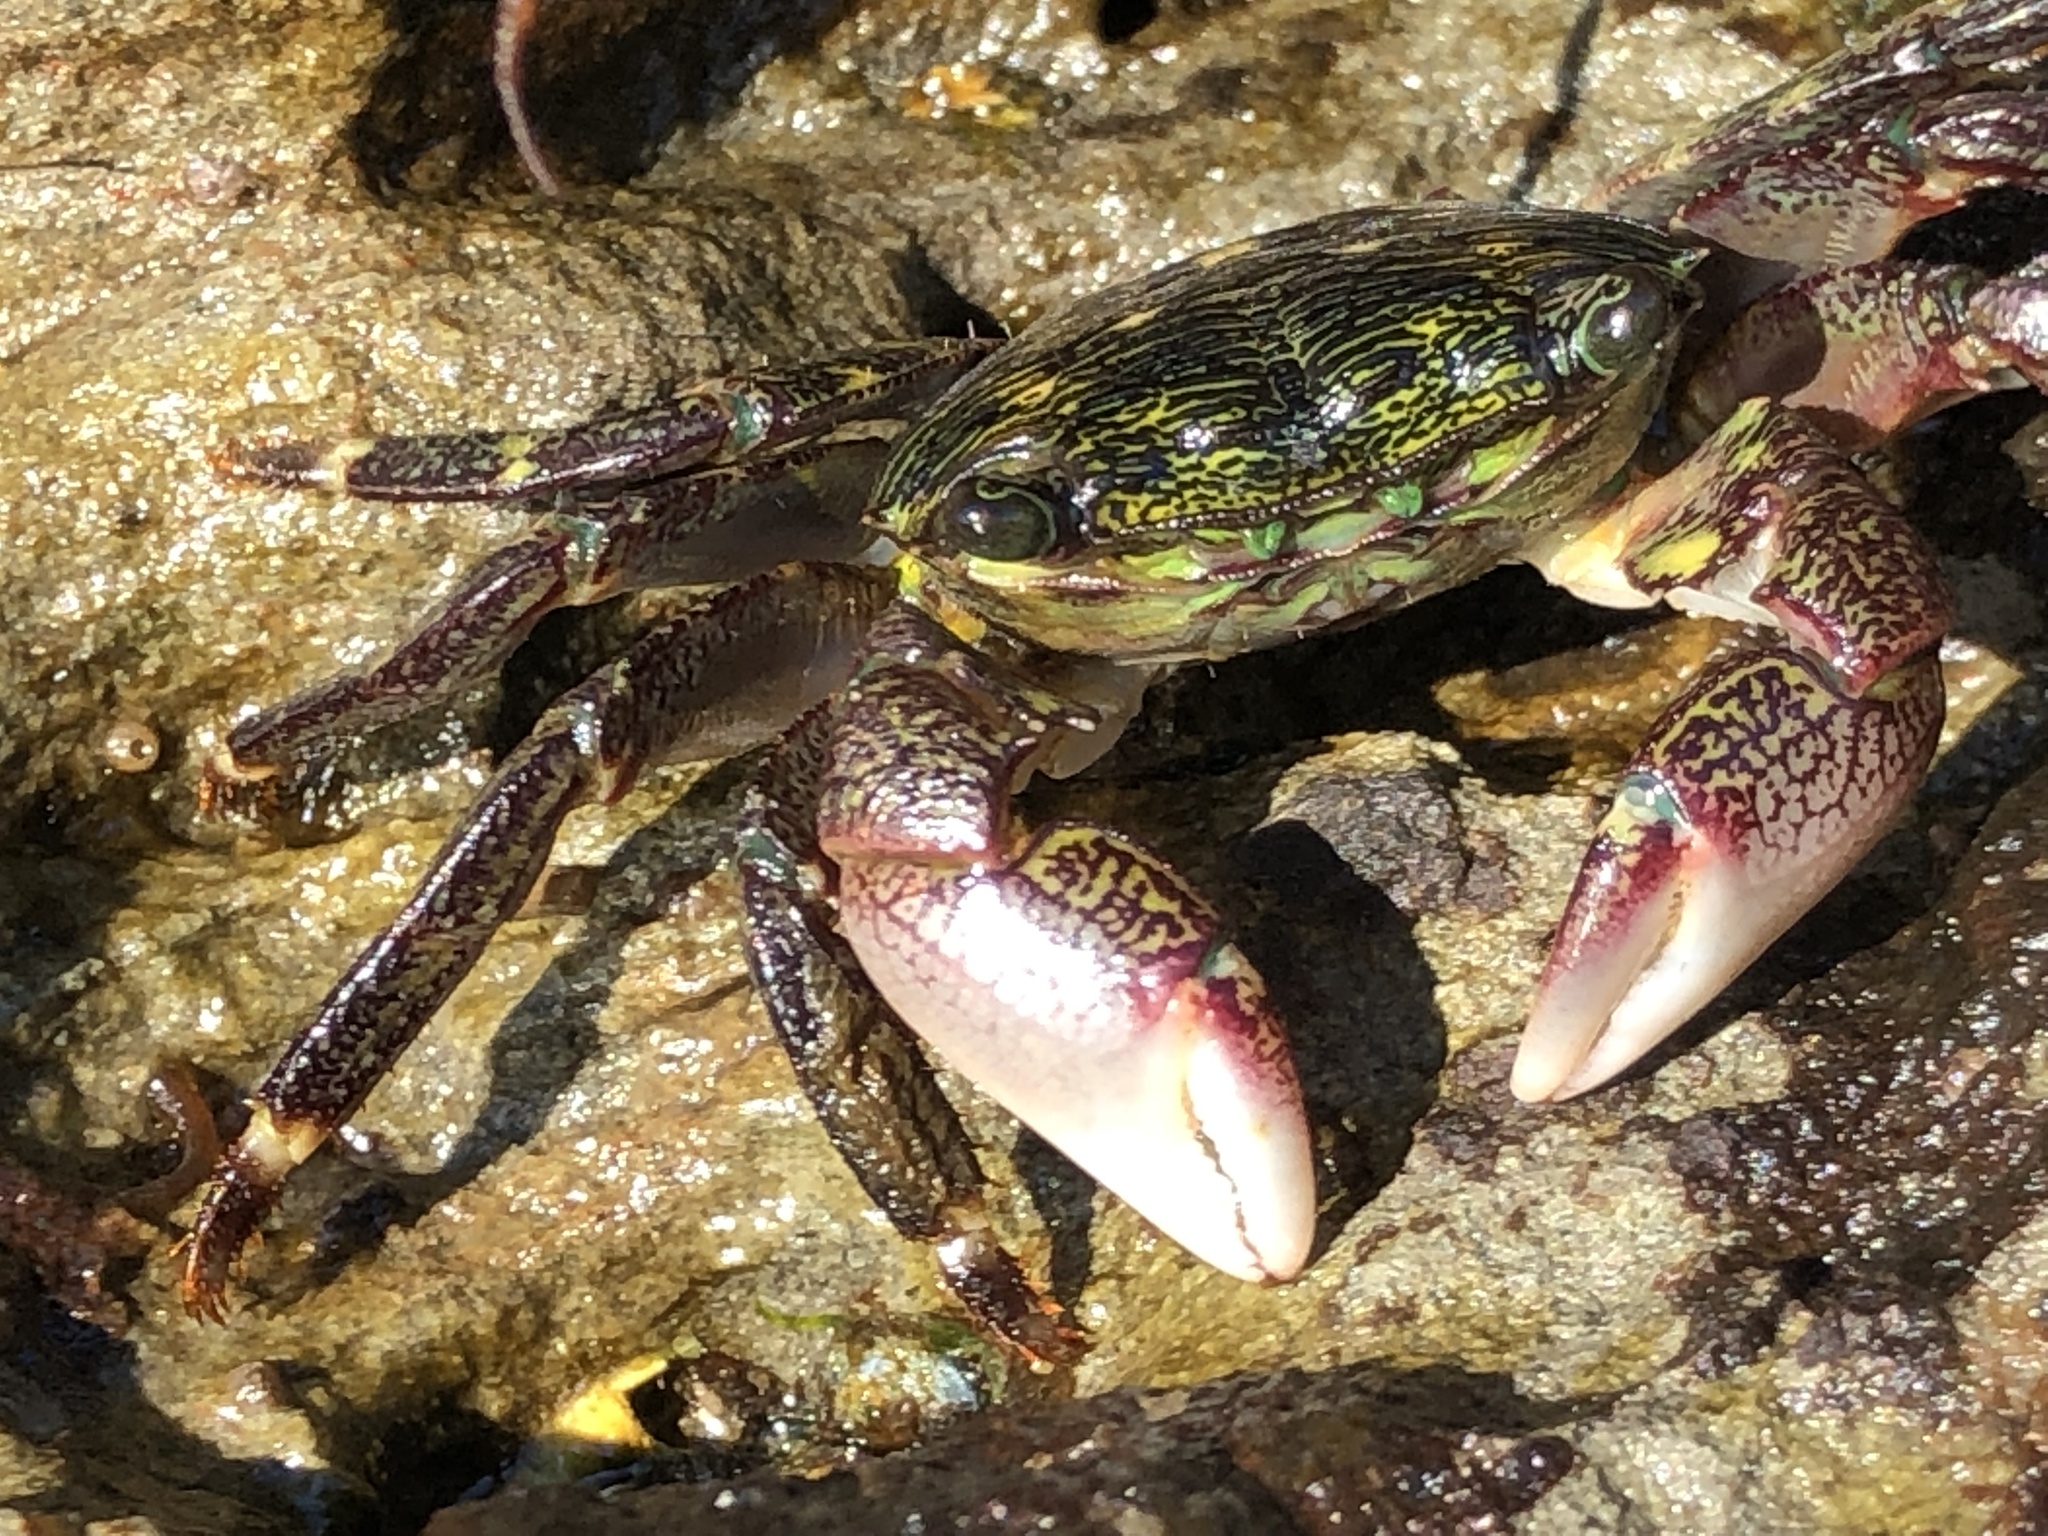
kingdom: Animalia
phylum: Arthropoda
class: Malacostraca
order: Decapoda
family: Grapsidae
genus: Pachygrapsus
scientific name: Pachygrapsus crassipes
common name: Striped shore crab
